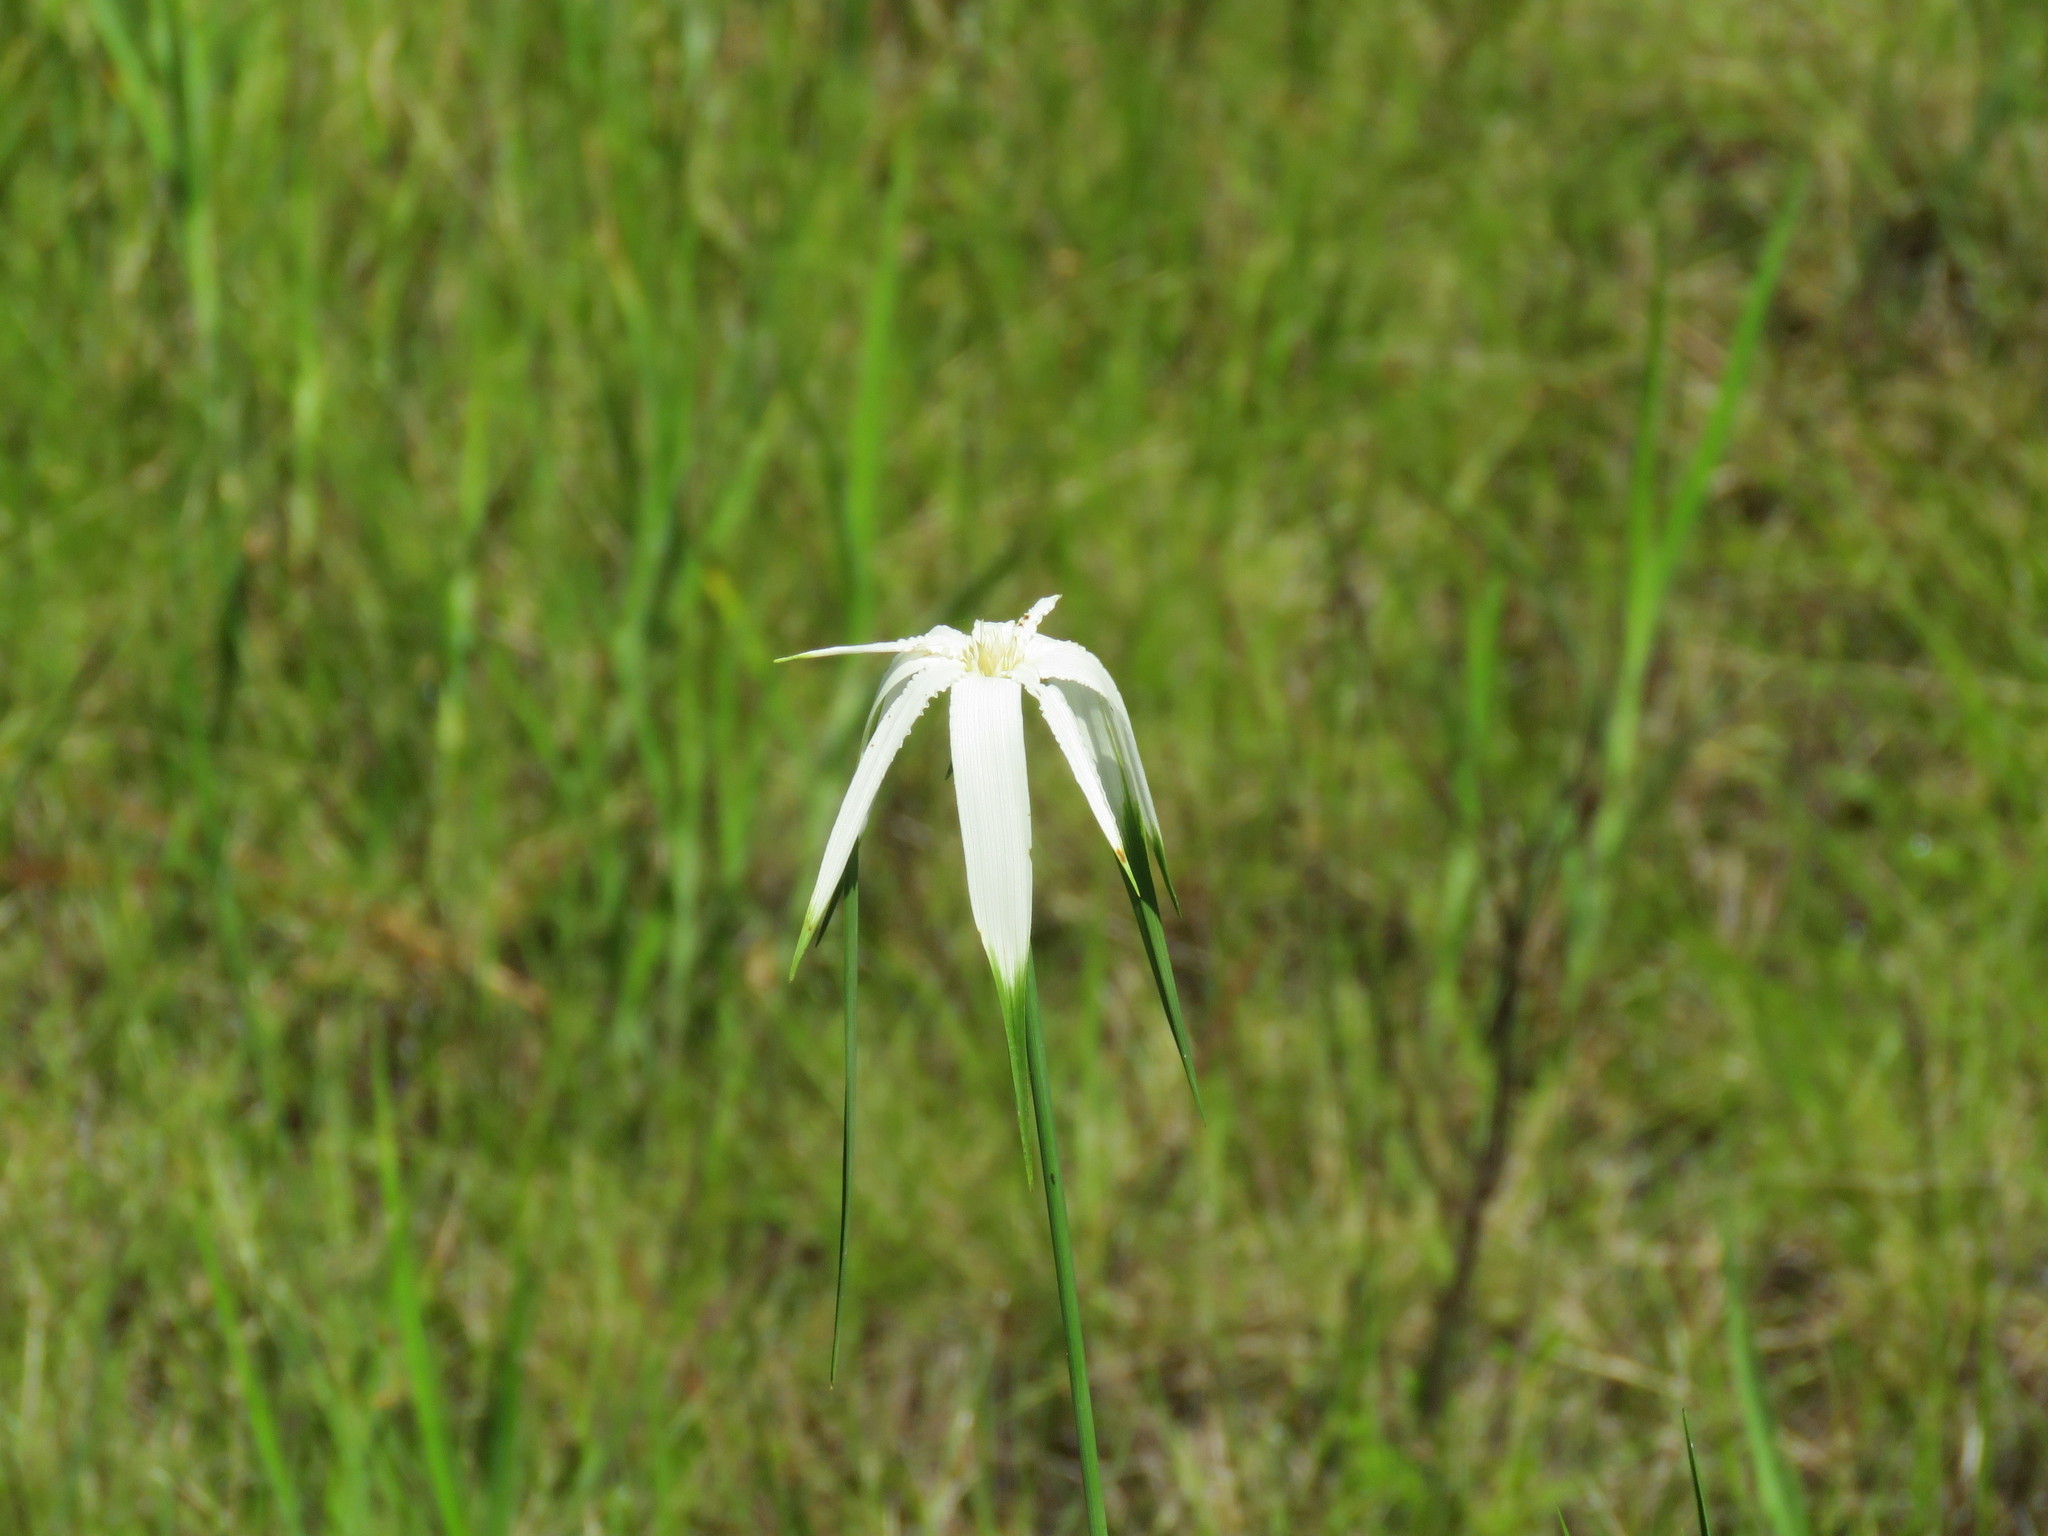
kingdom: Plantae
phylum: Tracheophyta
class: Liliopsida
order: Poales
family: Cyperaceae
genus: Rhynchospora
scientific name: Rhynchospora latifolia
